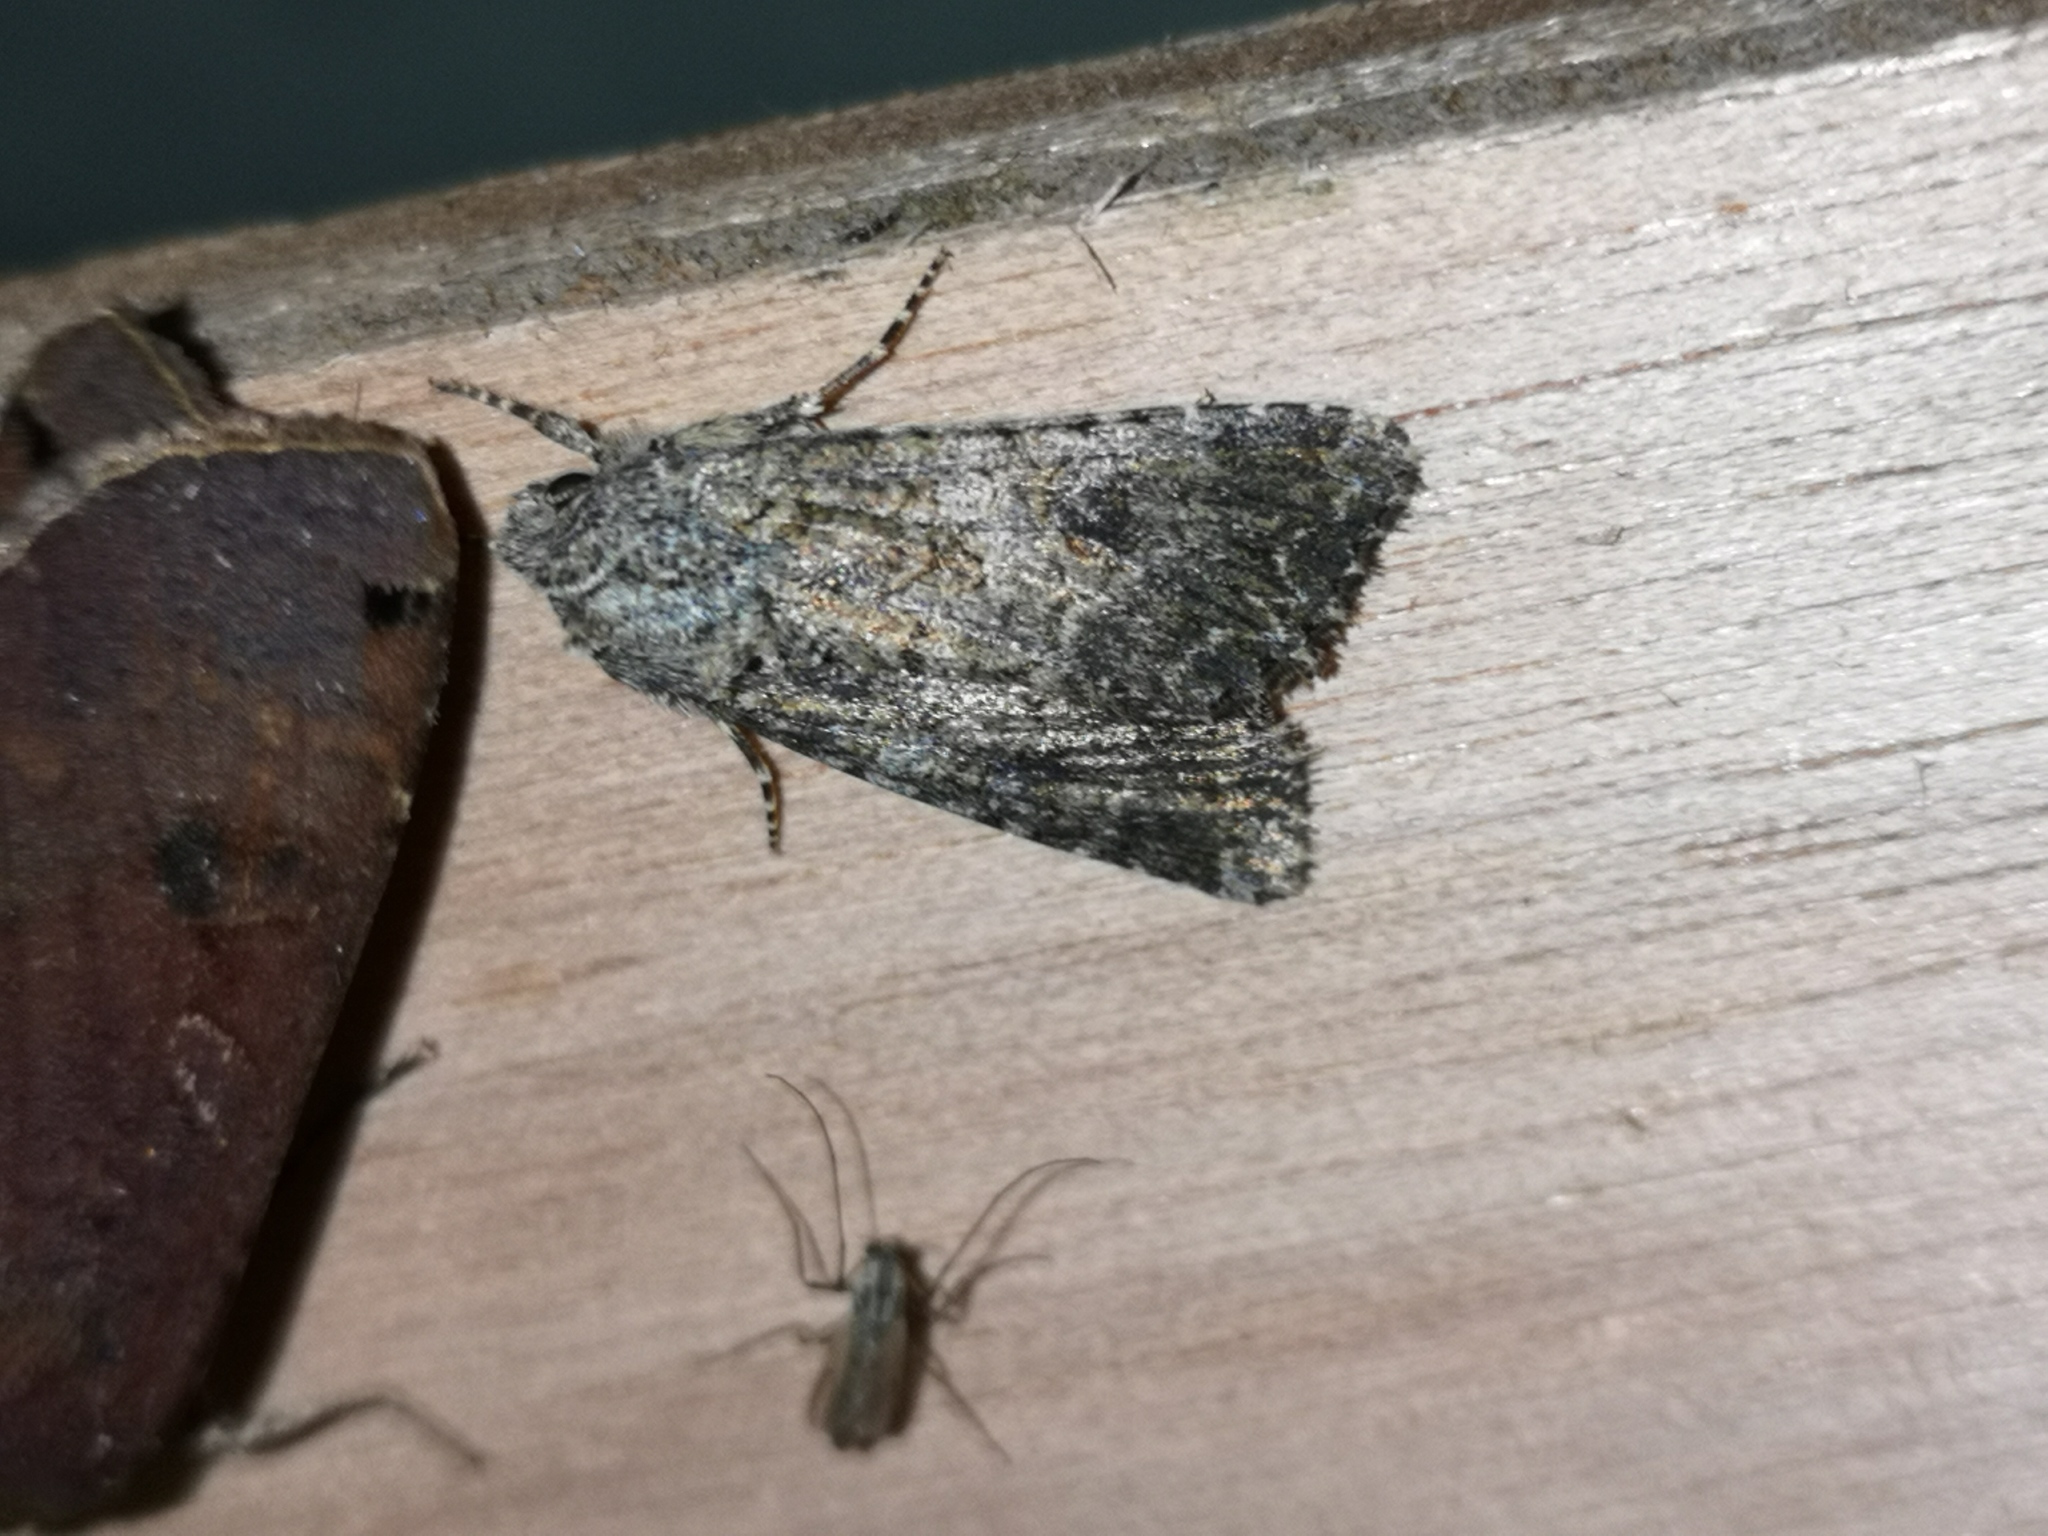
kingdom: Animalia
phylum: Arthropoda
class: Insecta
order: Lepidoptera
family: Noctuidae
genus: Anarta
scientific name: Anarta trifolii
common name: Clover cutworm moth
